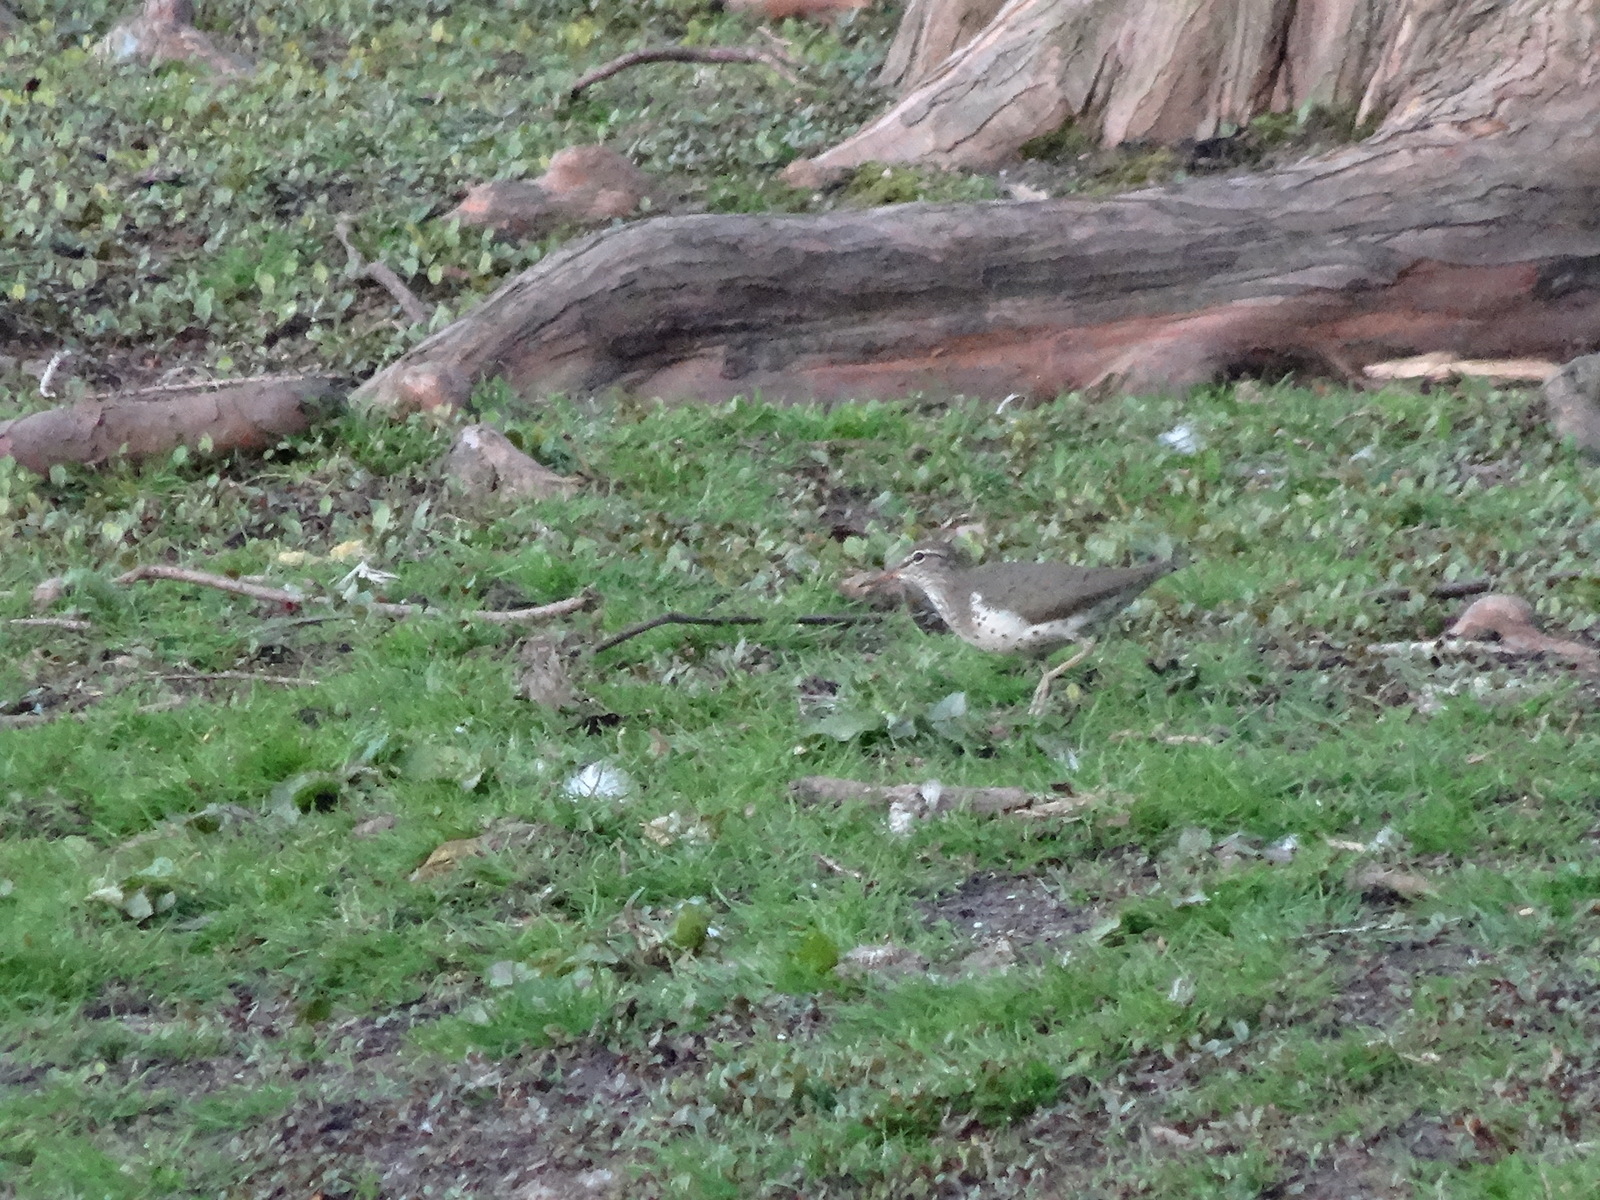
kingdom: Animalia
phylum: Chordata
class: Aves
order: Charadriiformes
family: Scolopacidae
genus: Actitis
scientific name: Actitis macularius
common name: Spotted sandpiper
